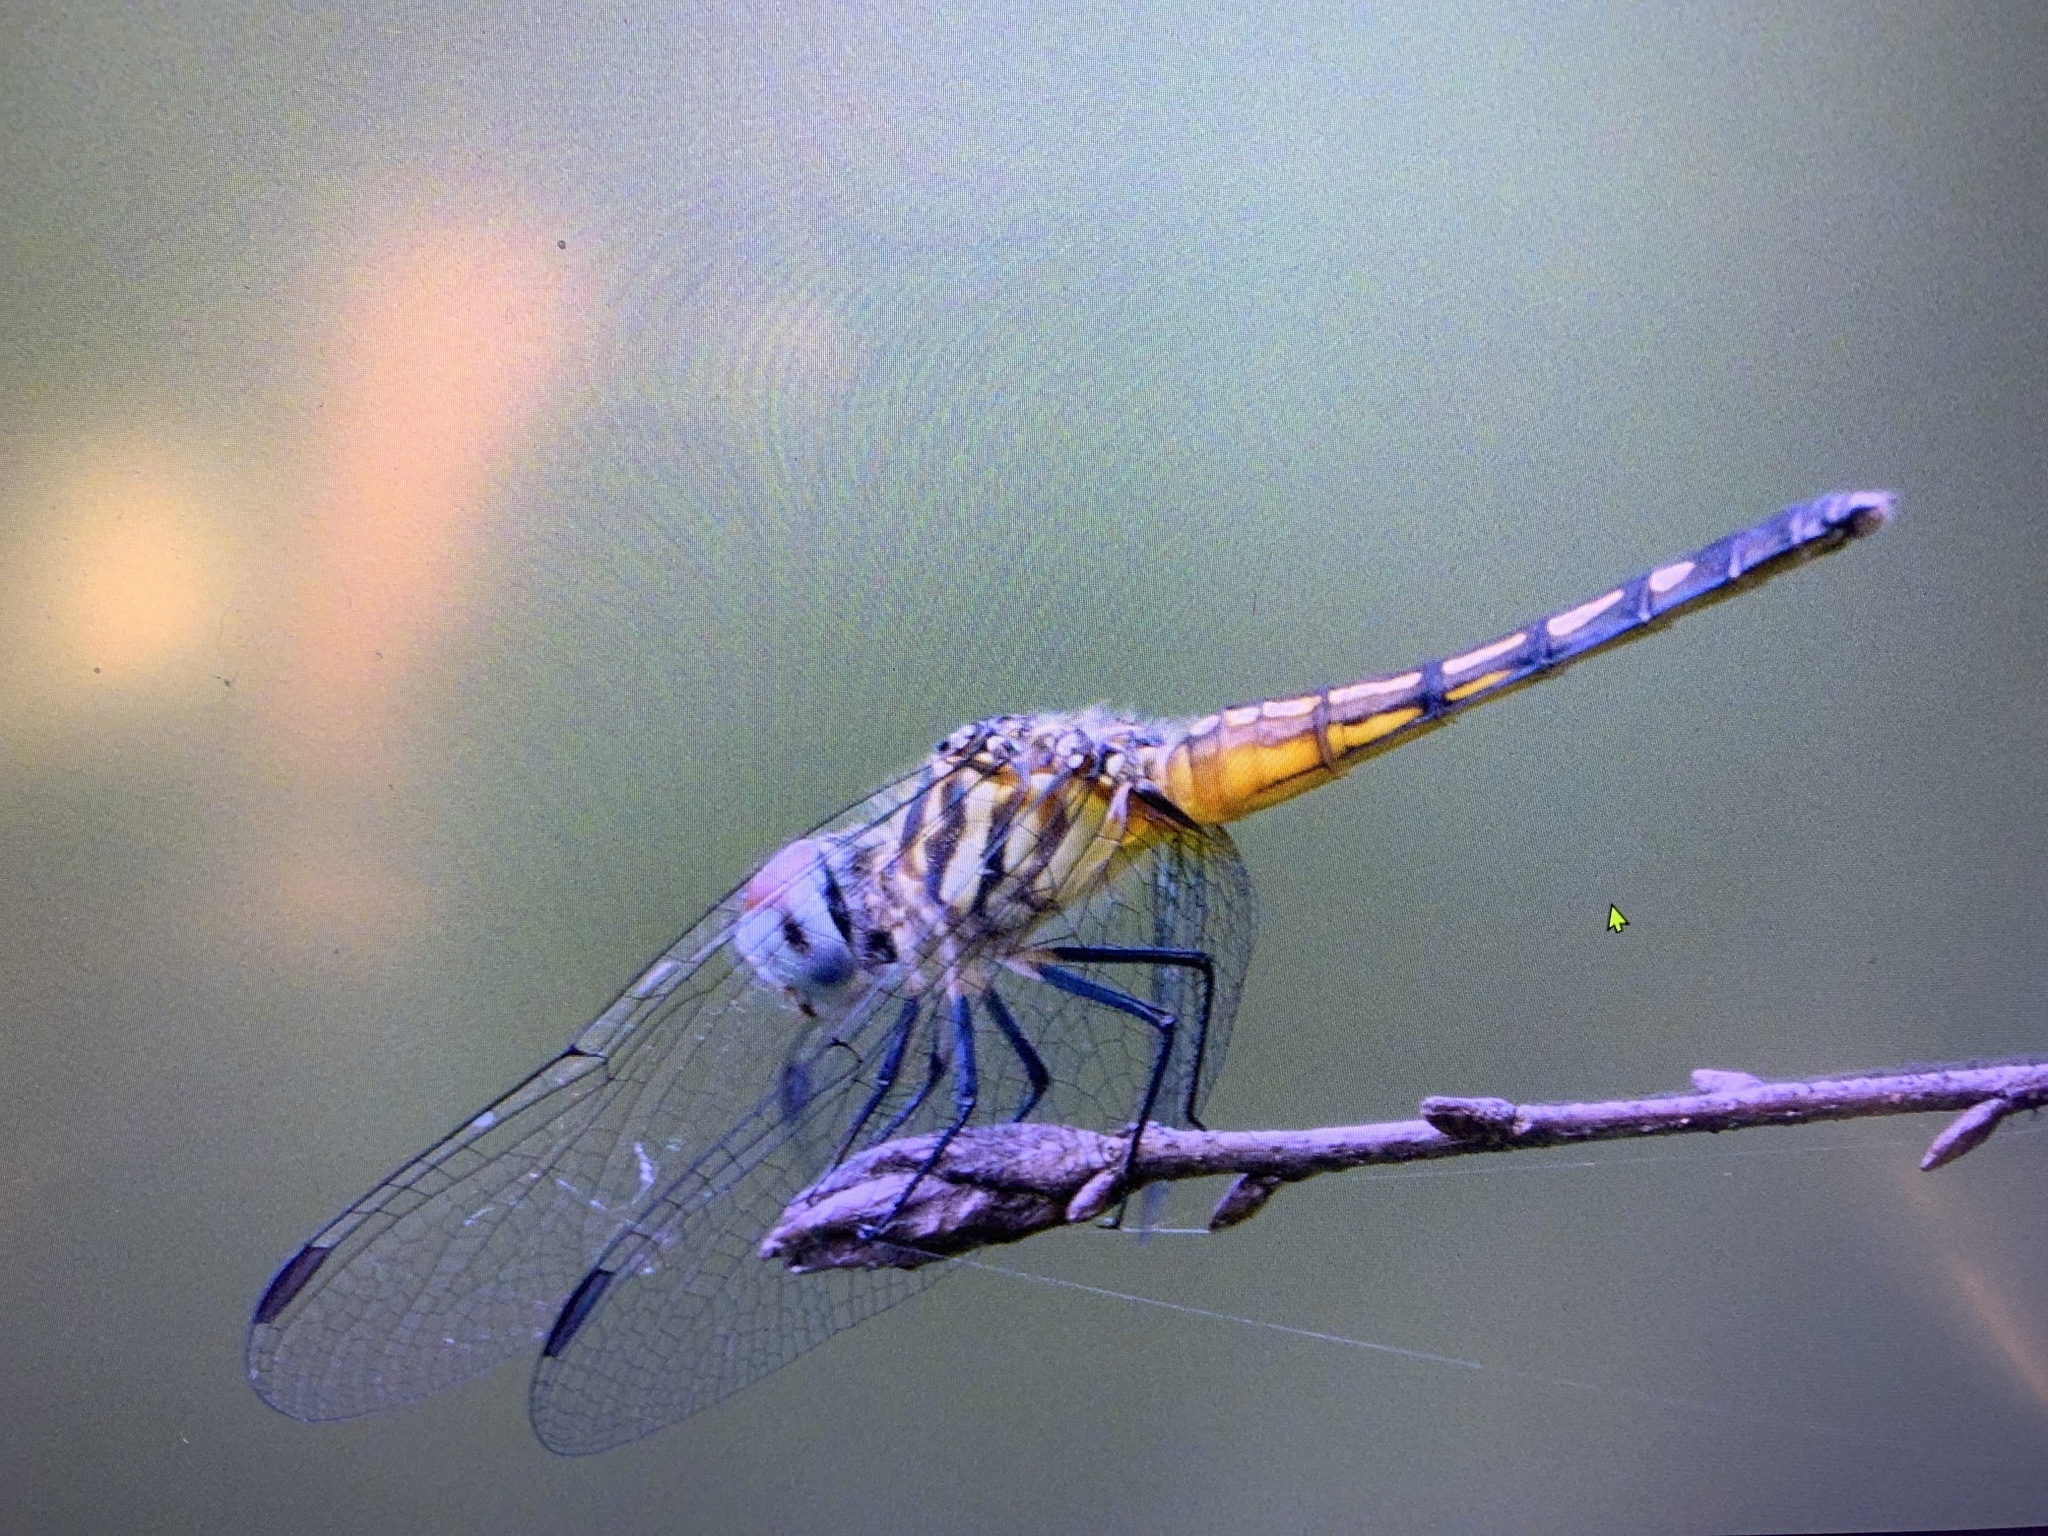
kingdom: Animalia
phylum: Arthropoda
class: Insecta
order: Odonata
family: Libellulidae
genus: Pachydiplax
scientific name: Pachydiplax longipennis
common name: Blue dasher
